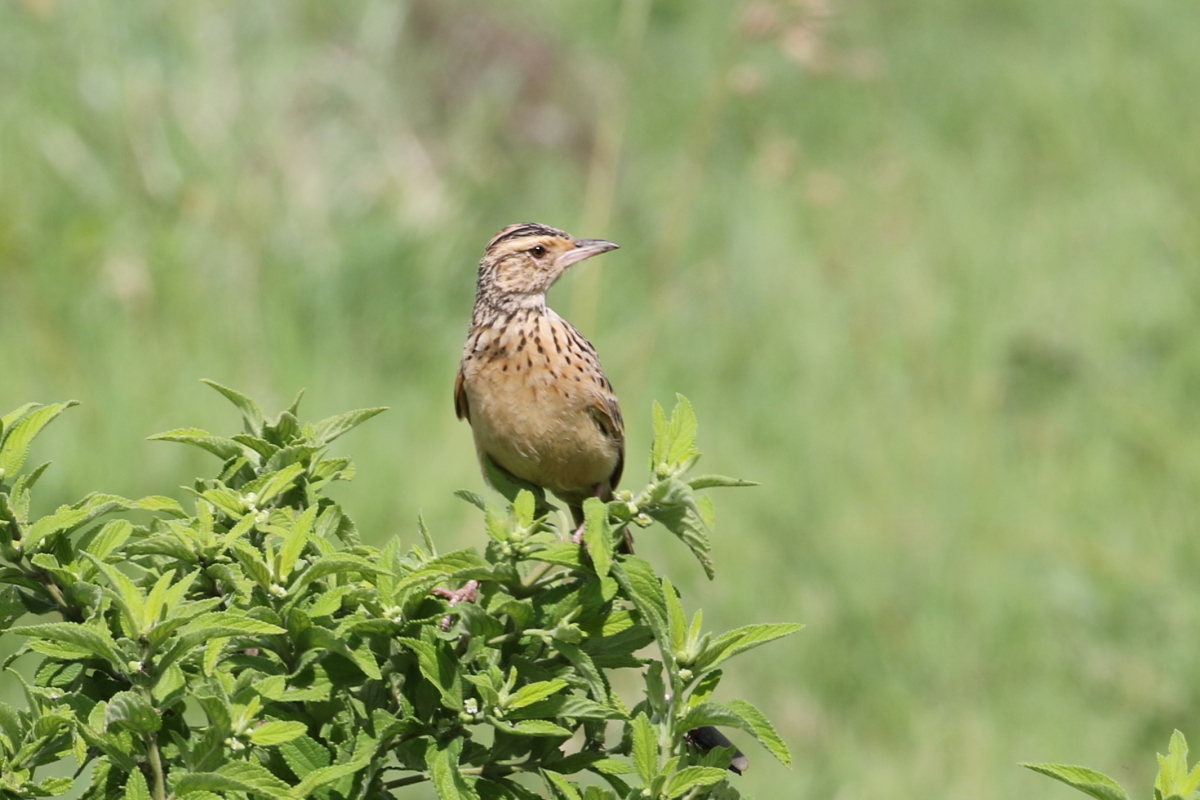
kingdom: Animalia
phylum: Chordata
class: Aves
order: Passeriformes
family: Alaudidae
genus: Mirafra
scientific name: Mirafra africana
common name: Rufous-naped lark
